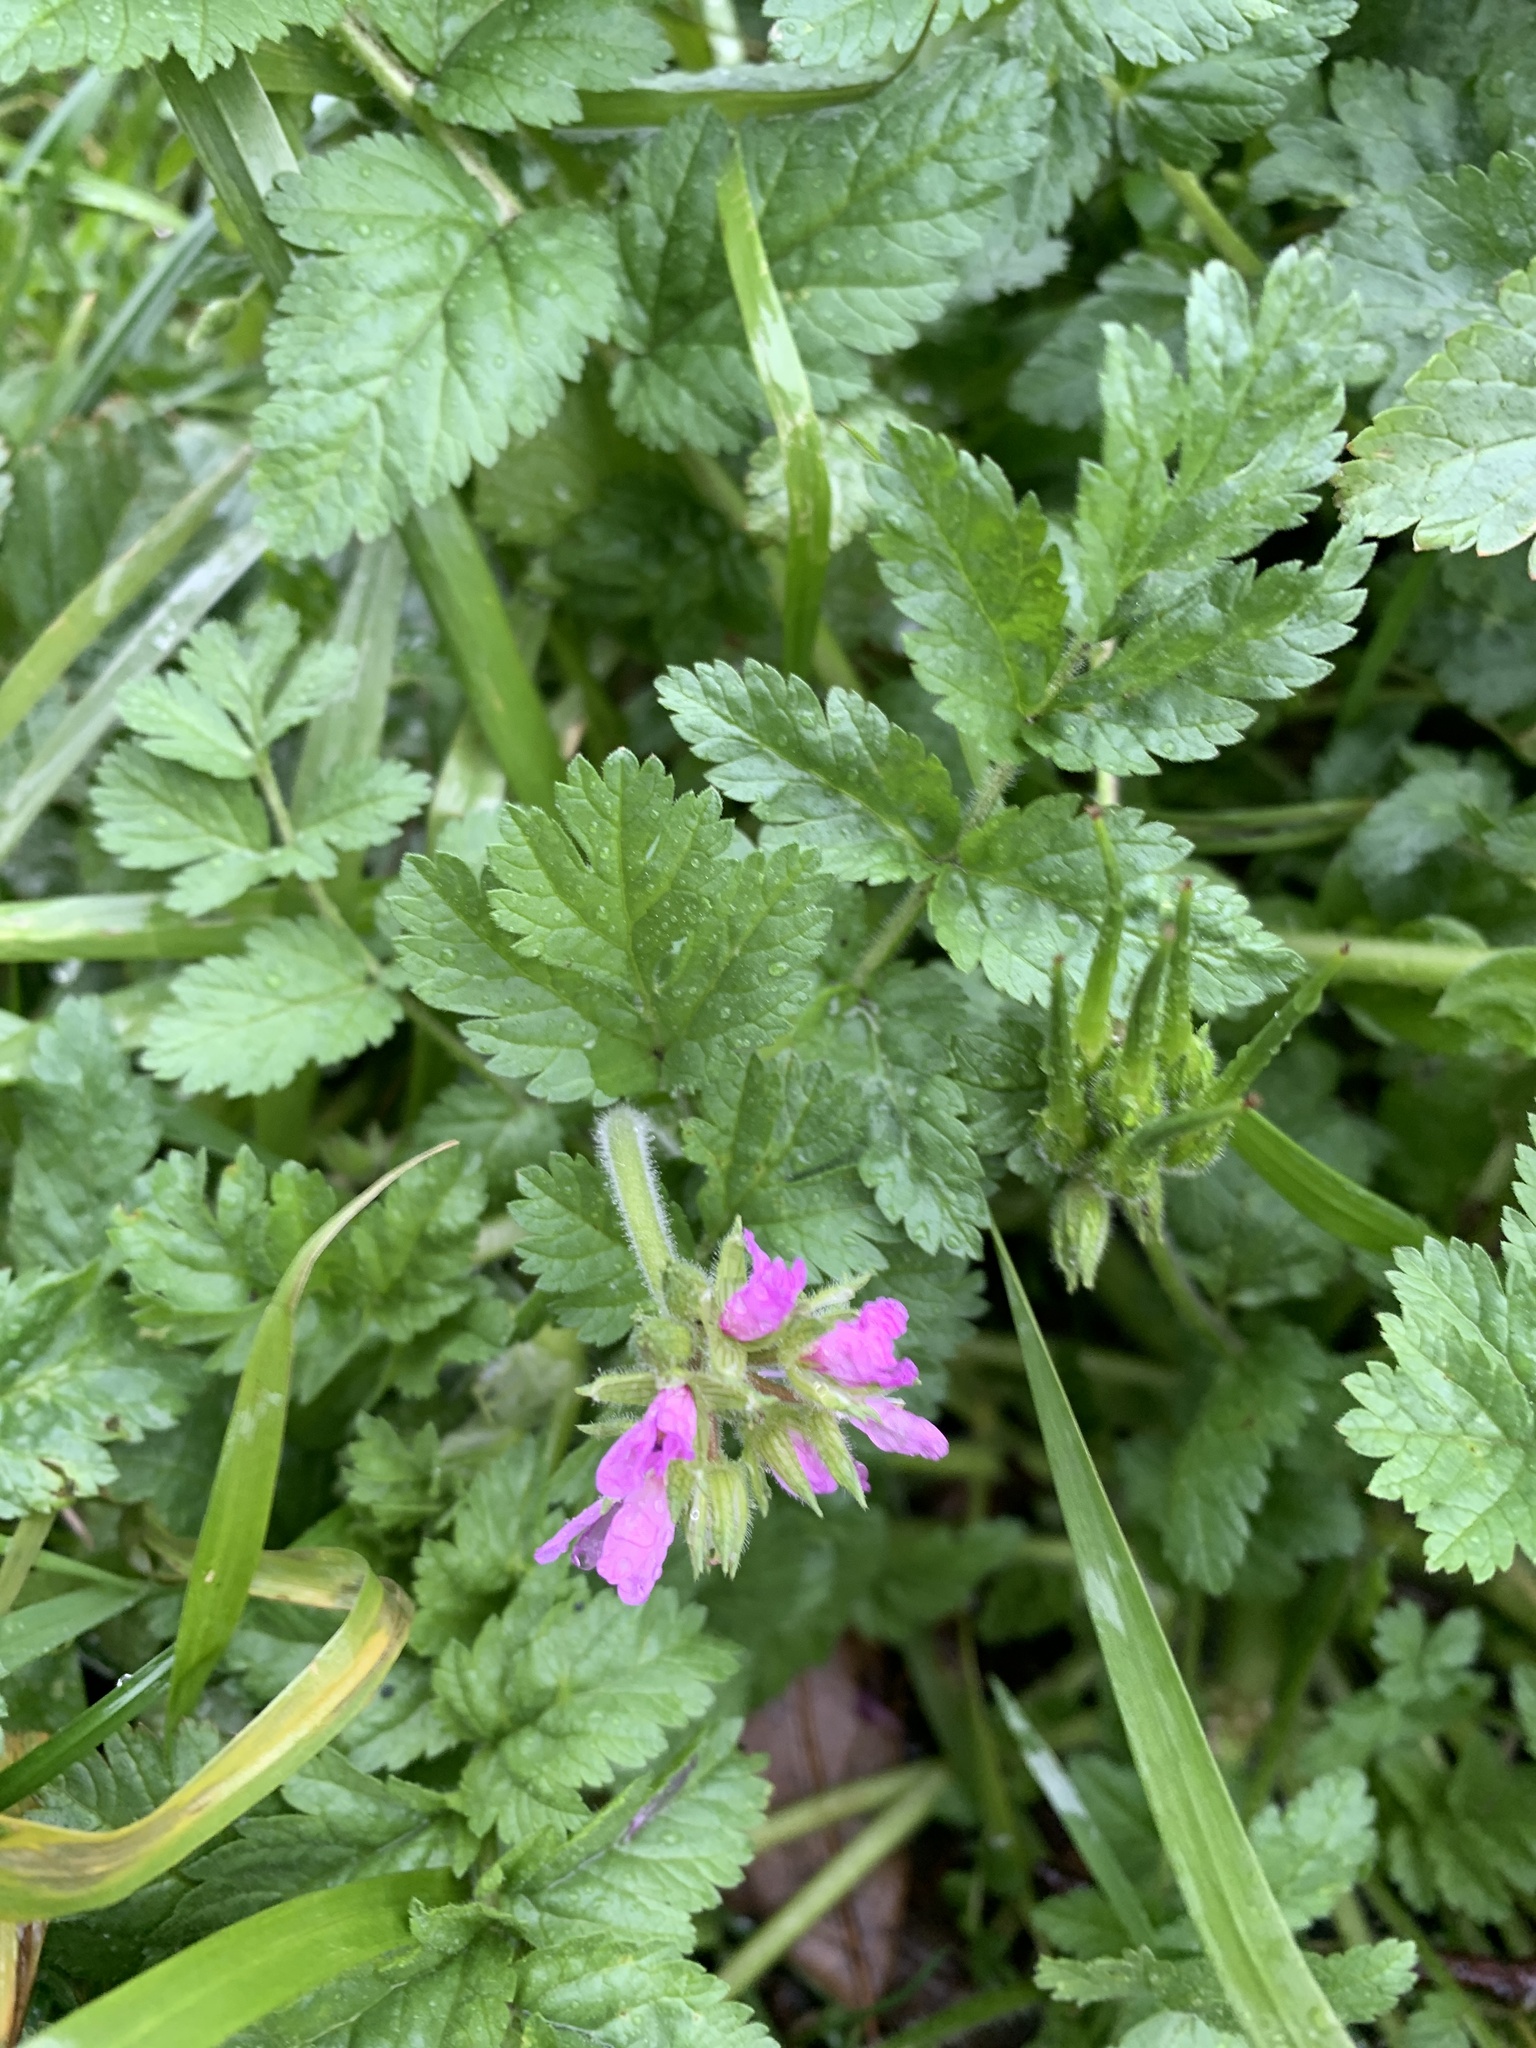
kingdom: Plantae
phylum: Tracheophyta
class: Magnoliopsida
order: Geraniales
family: Geraniaceae
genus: Erodium
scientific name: Erodium moschatum
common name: Musk stork's-bill
